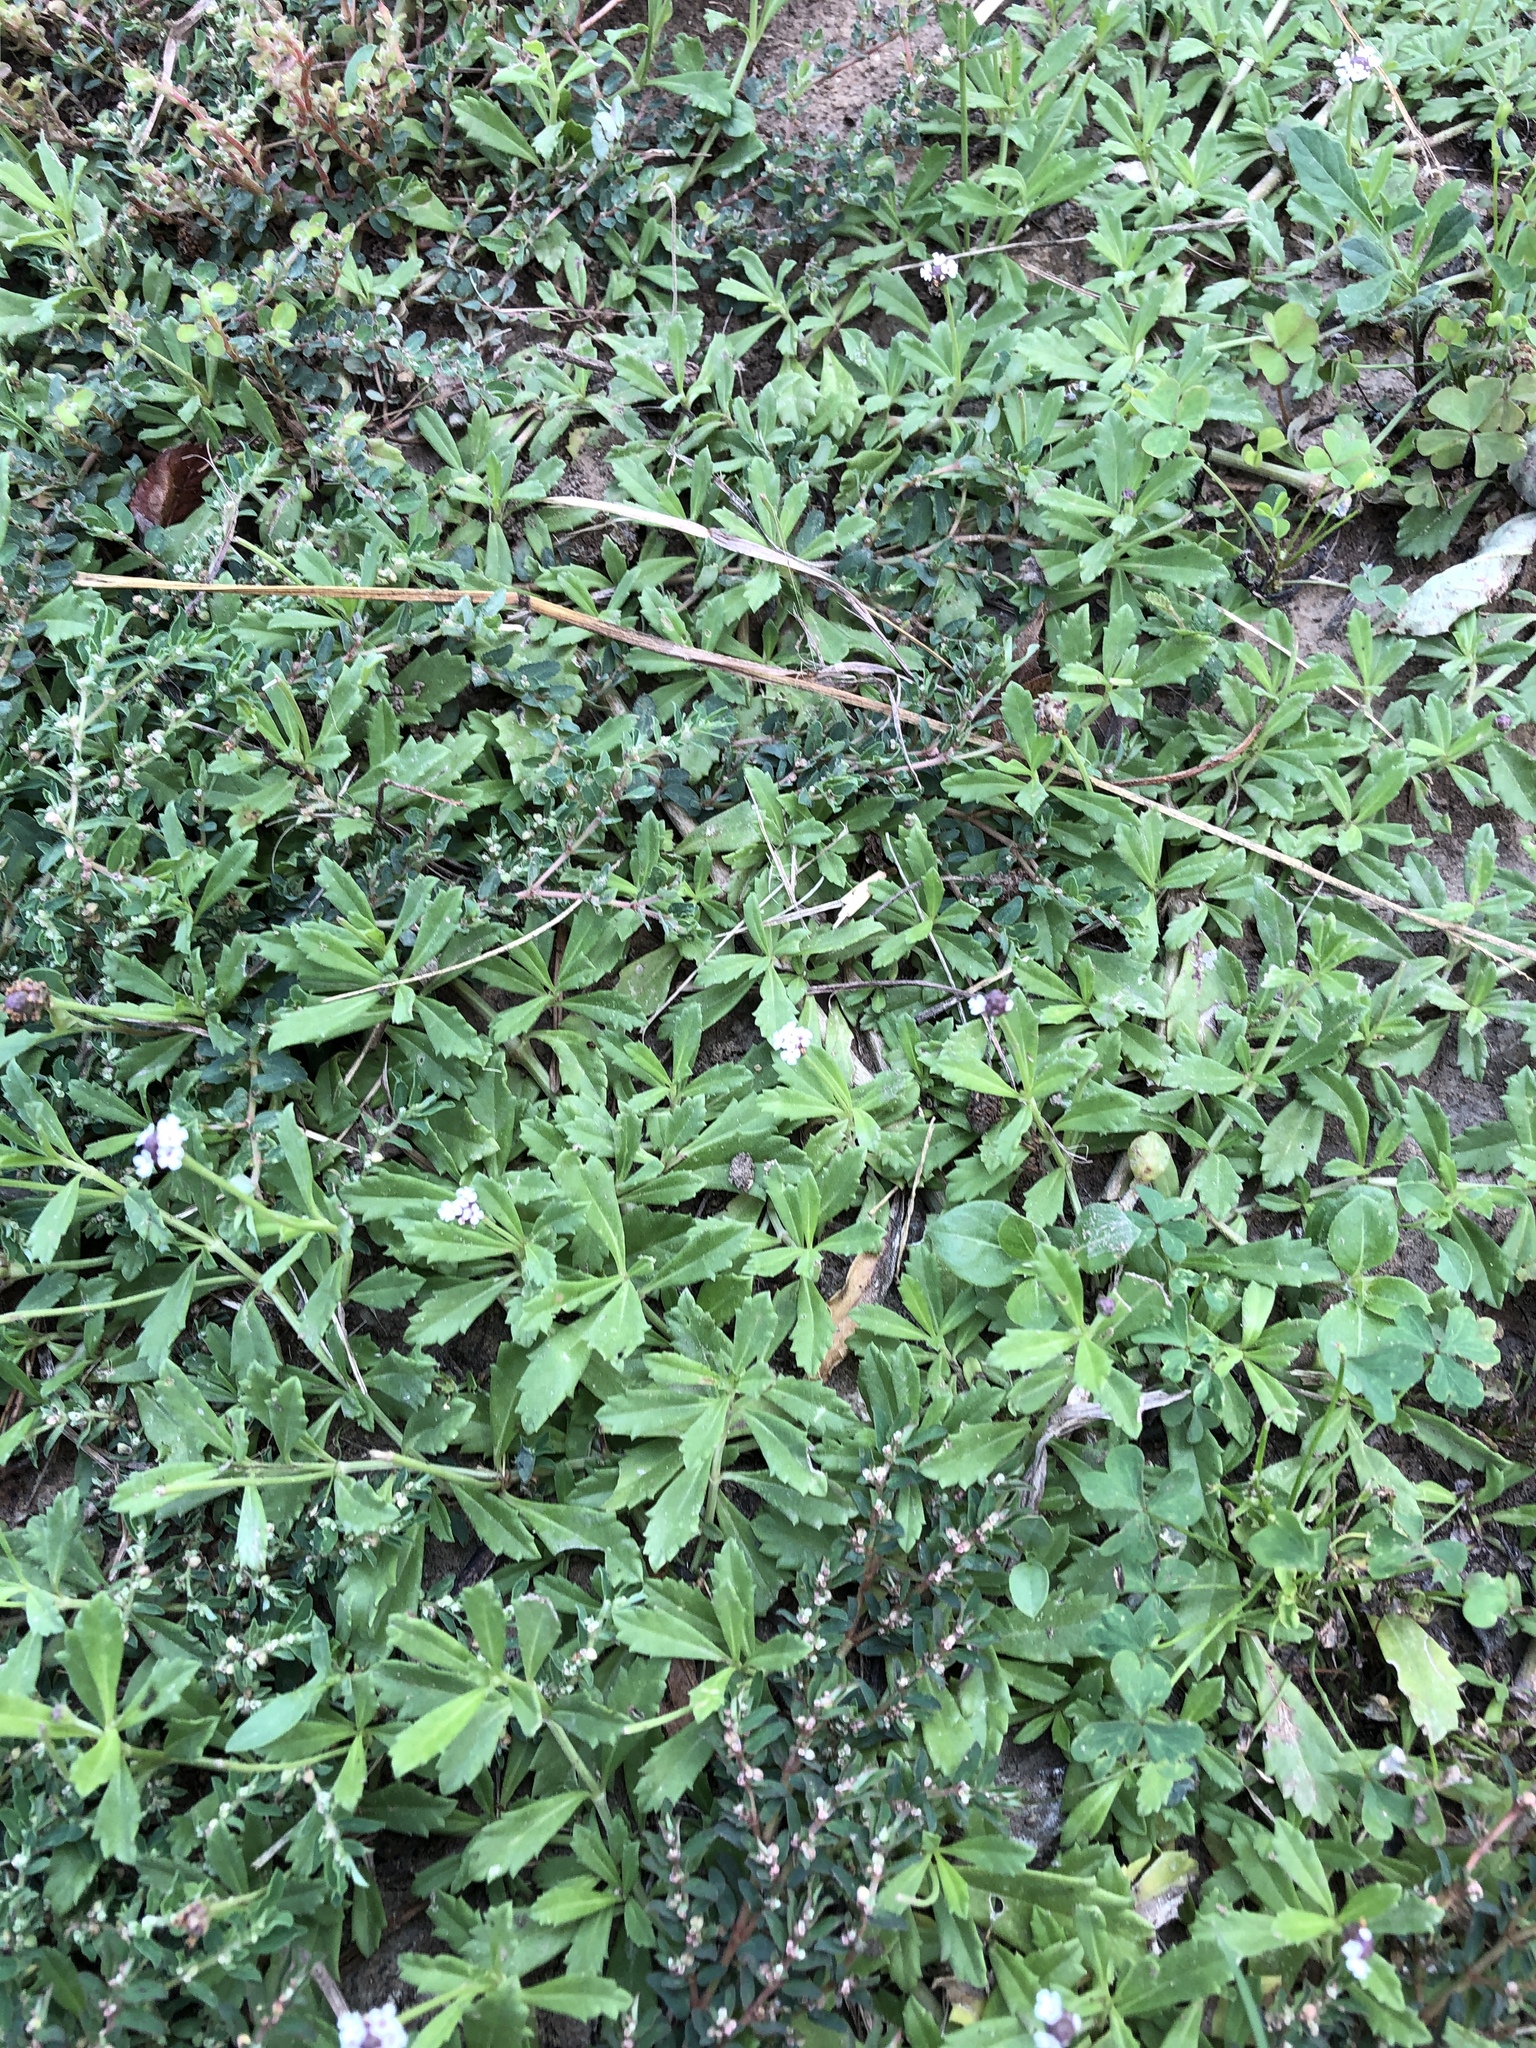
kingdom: Plantae
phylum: Tracheophyta
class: Magnoliopsida
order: Lamiales
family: Verbenaceae
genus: Phyla
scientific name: Phyla nodiflora
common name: Frogfruit
